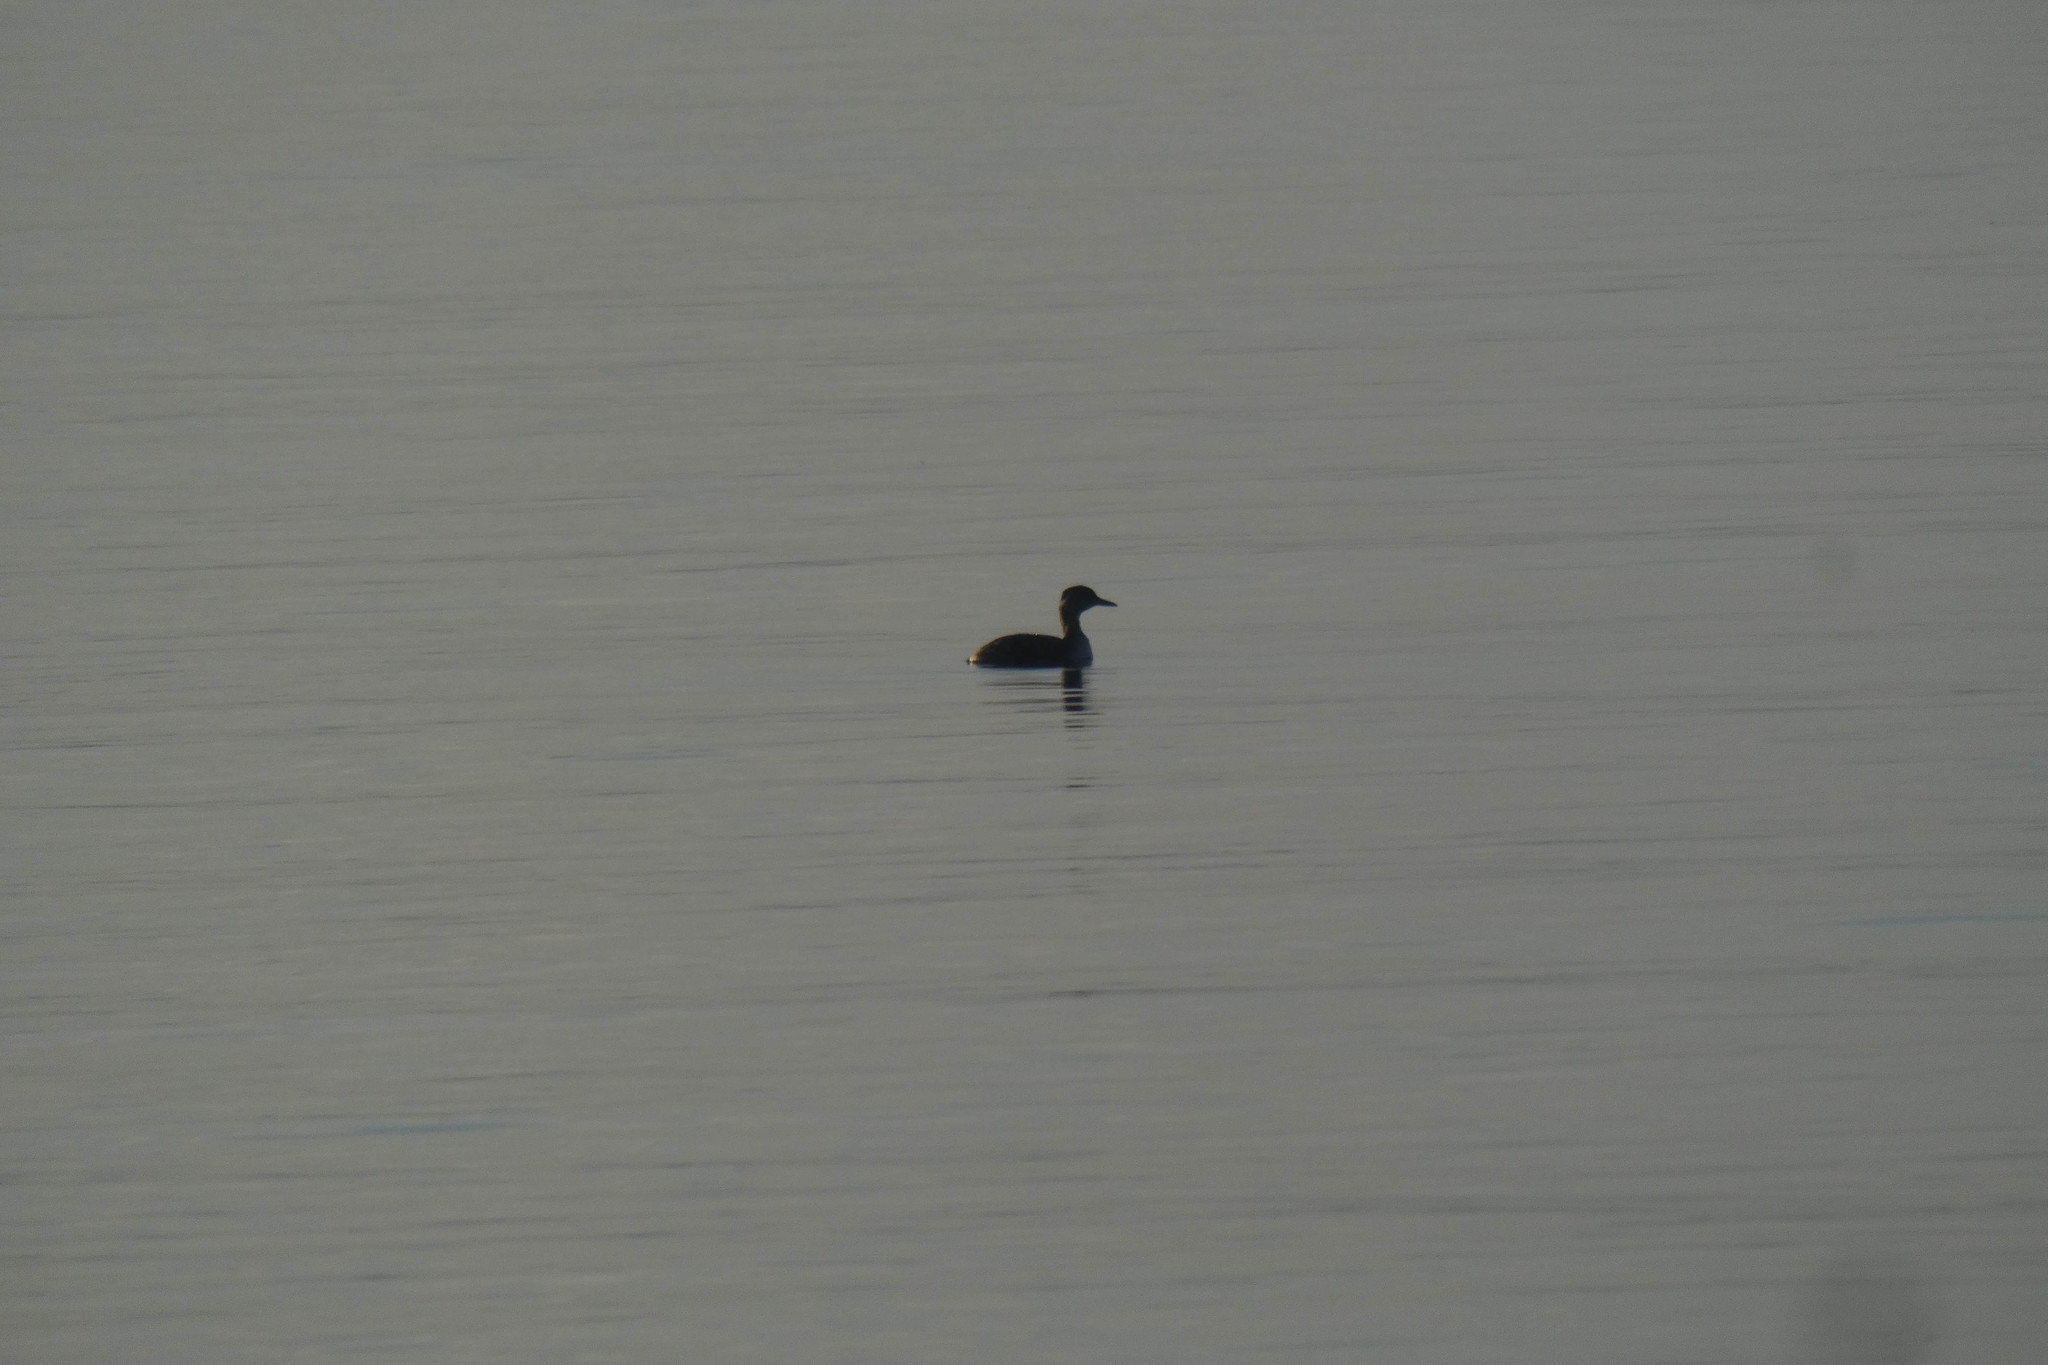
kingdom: Animalia
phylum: Chordata
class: Aves
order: Podicipediformes
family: Podicipedidae
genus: Podiceps
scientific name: Podiceps grisegena
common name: Red-necked grebe
